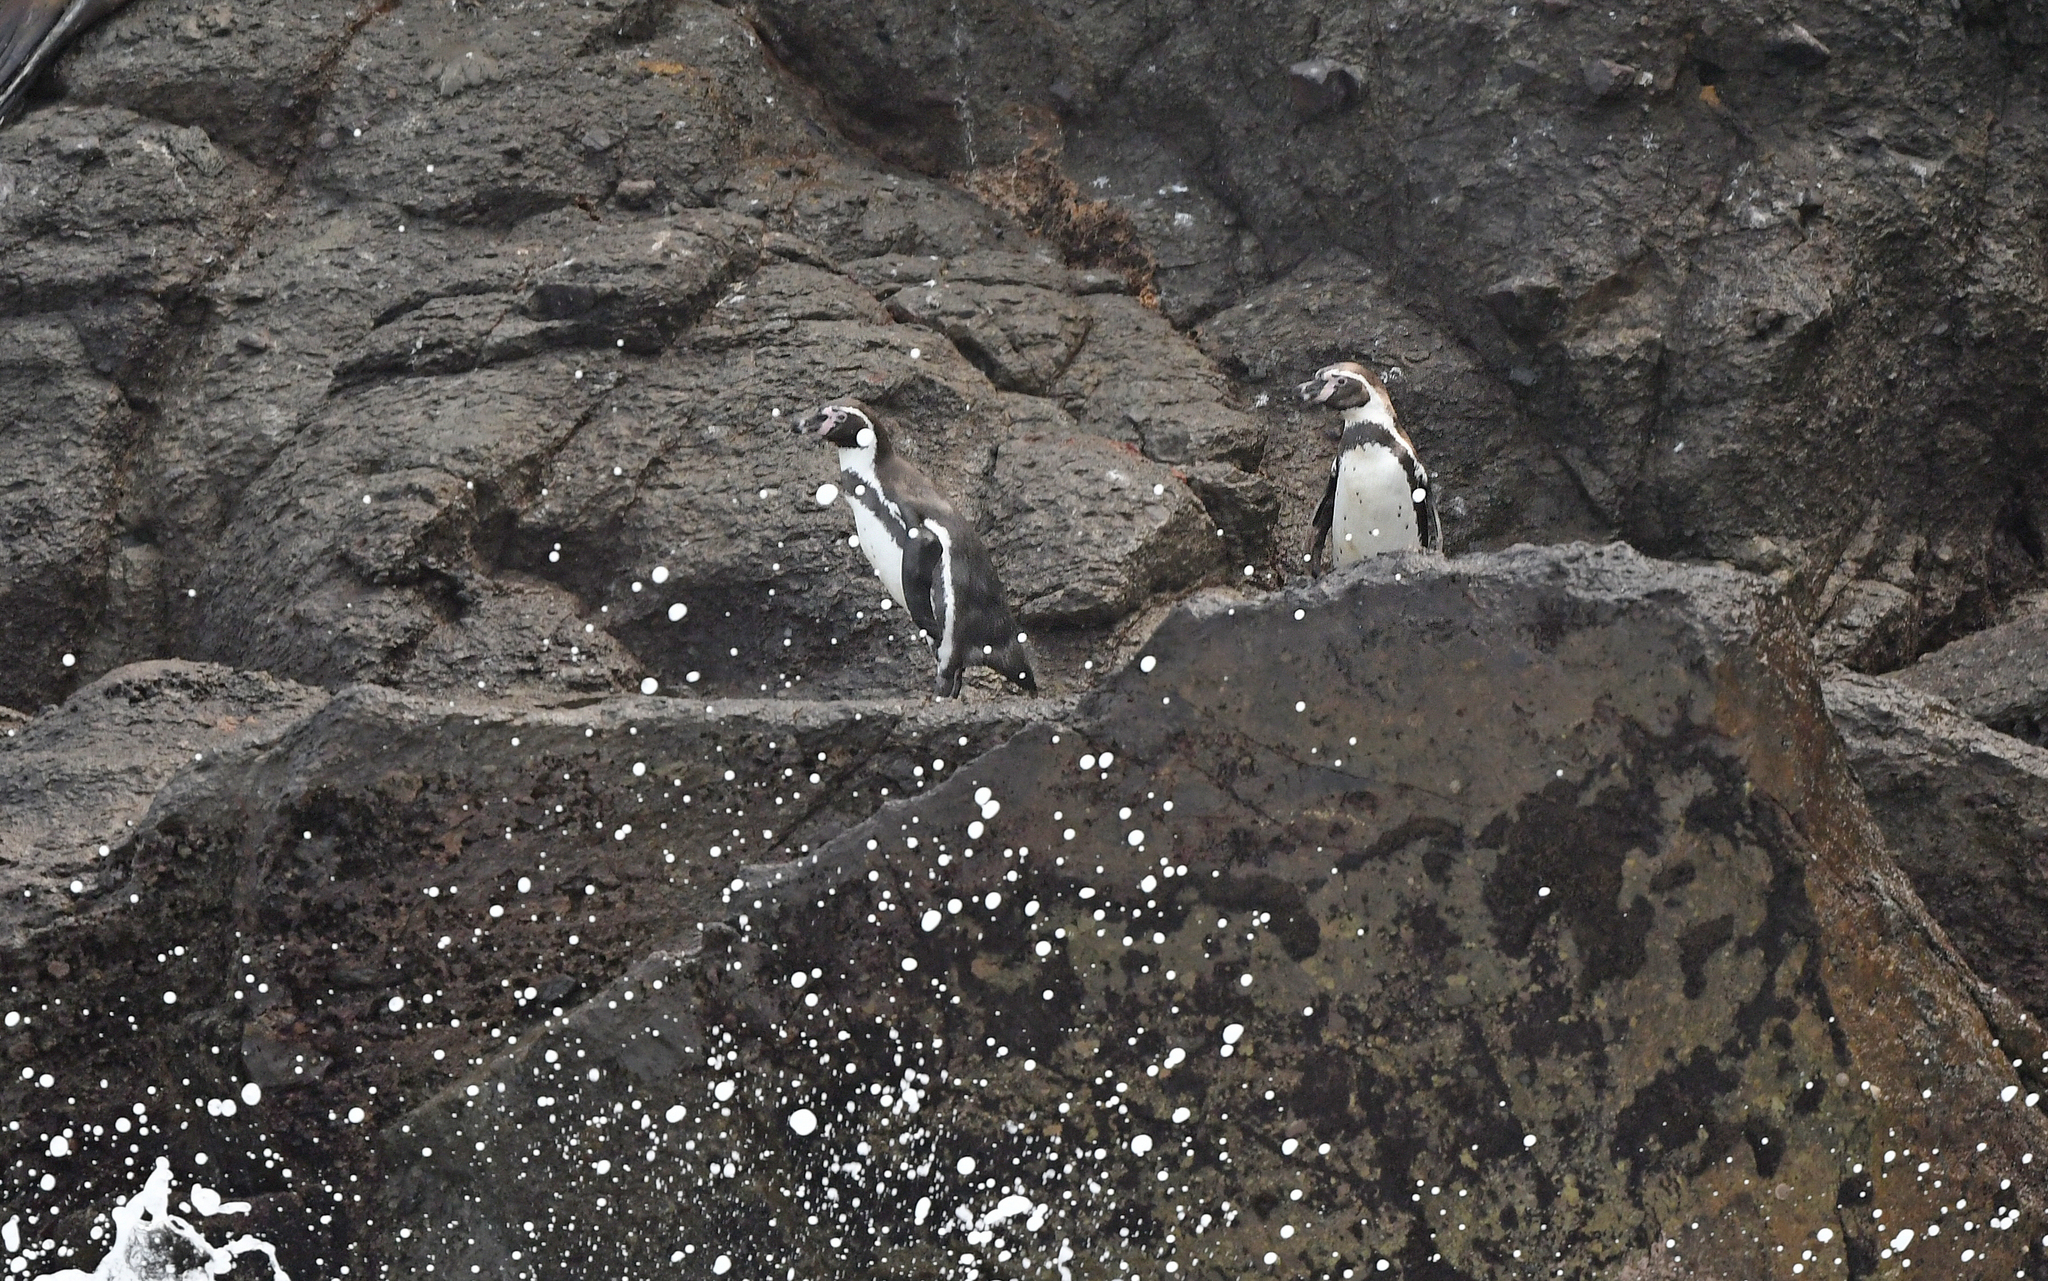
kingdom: Animalia
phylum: Chordata
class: Aves
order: Sphenisciformes
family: Spheniscidae
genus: Spheniscus
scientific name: Spheniscus humboldti
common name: Humboldt penguin
